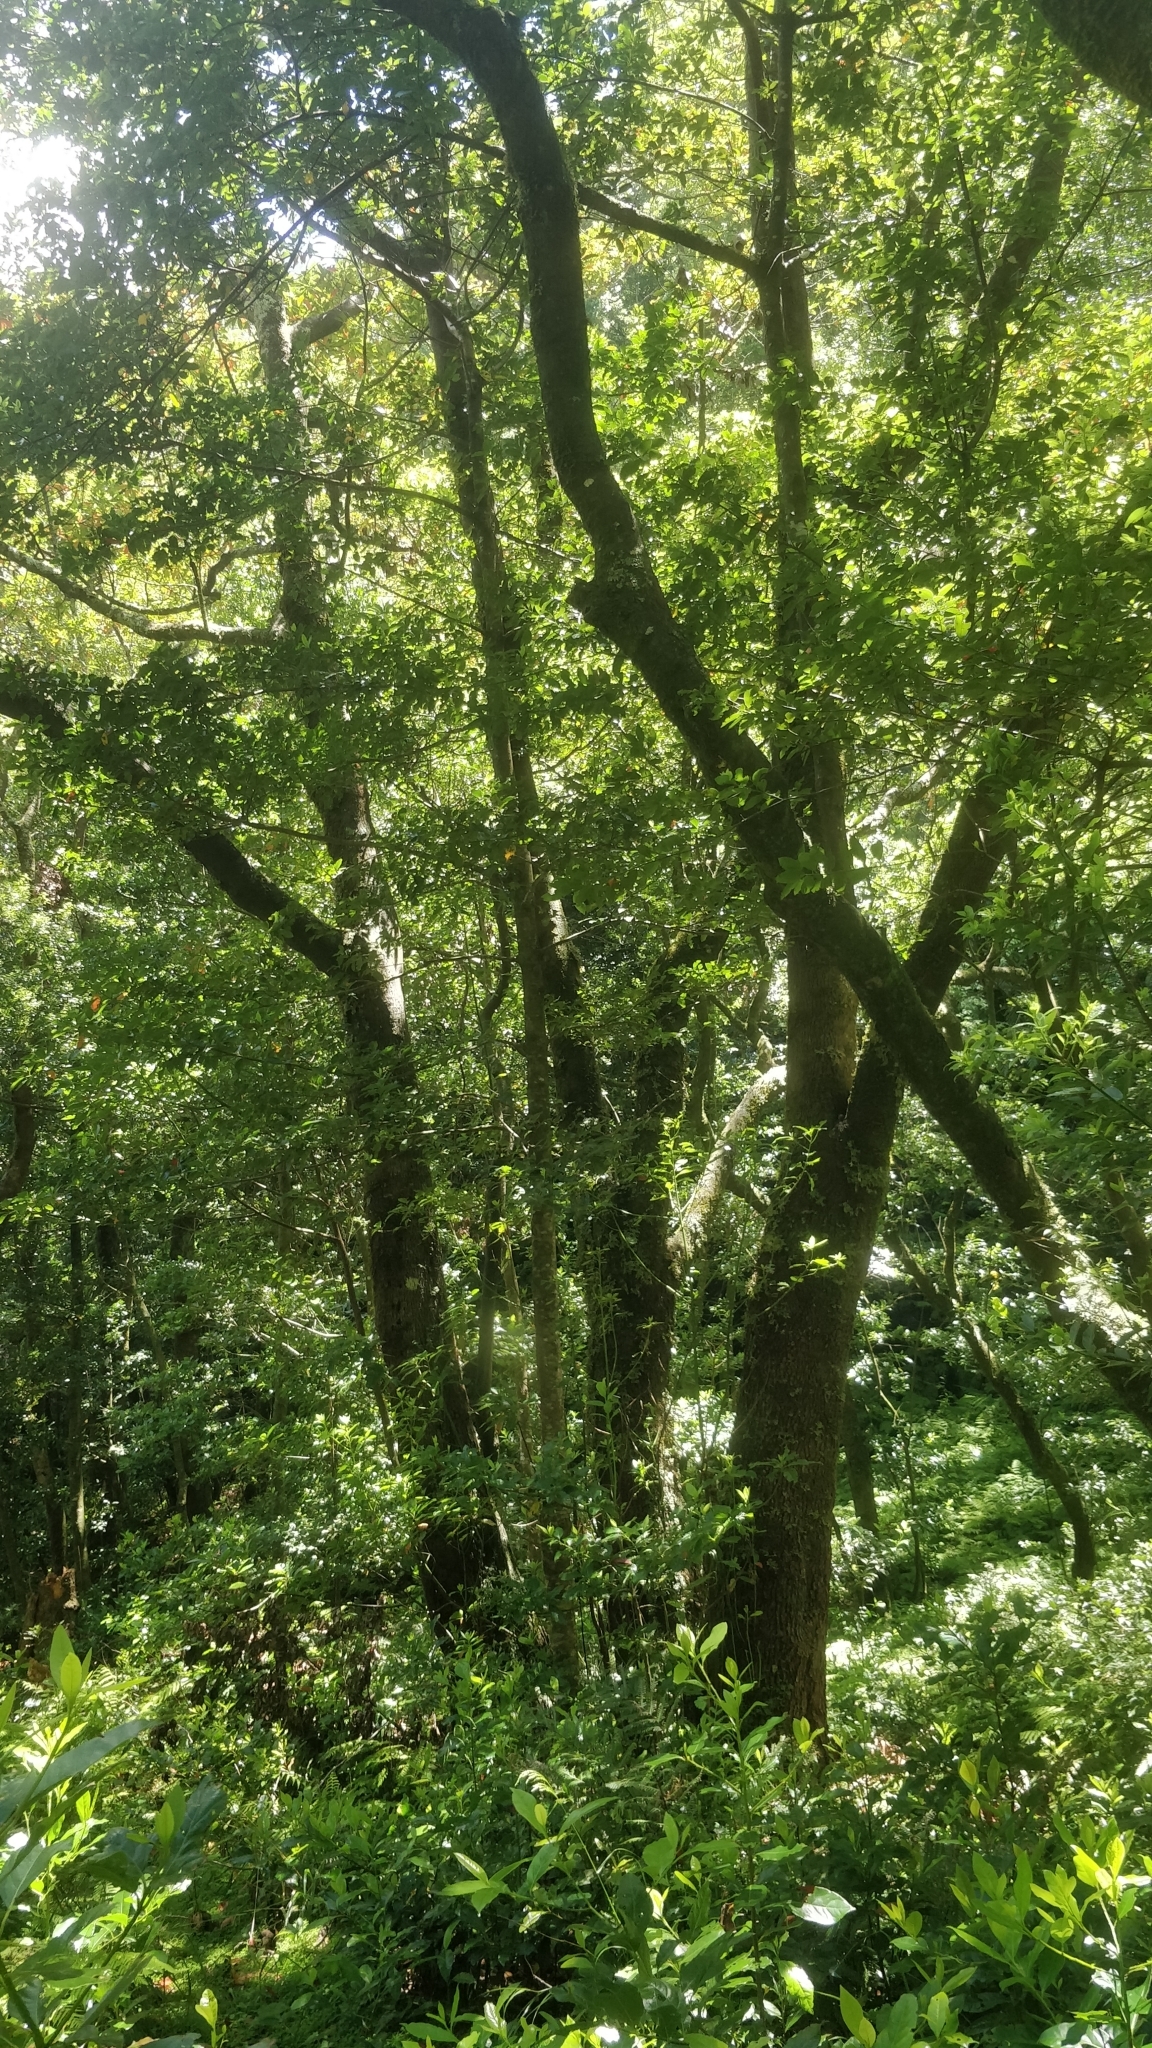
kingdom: Plantae
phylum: Tracheophyta
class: Magnoliopsida
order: Laurales
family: Lauraceae
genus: Persea
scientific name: Persea indica
